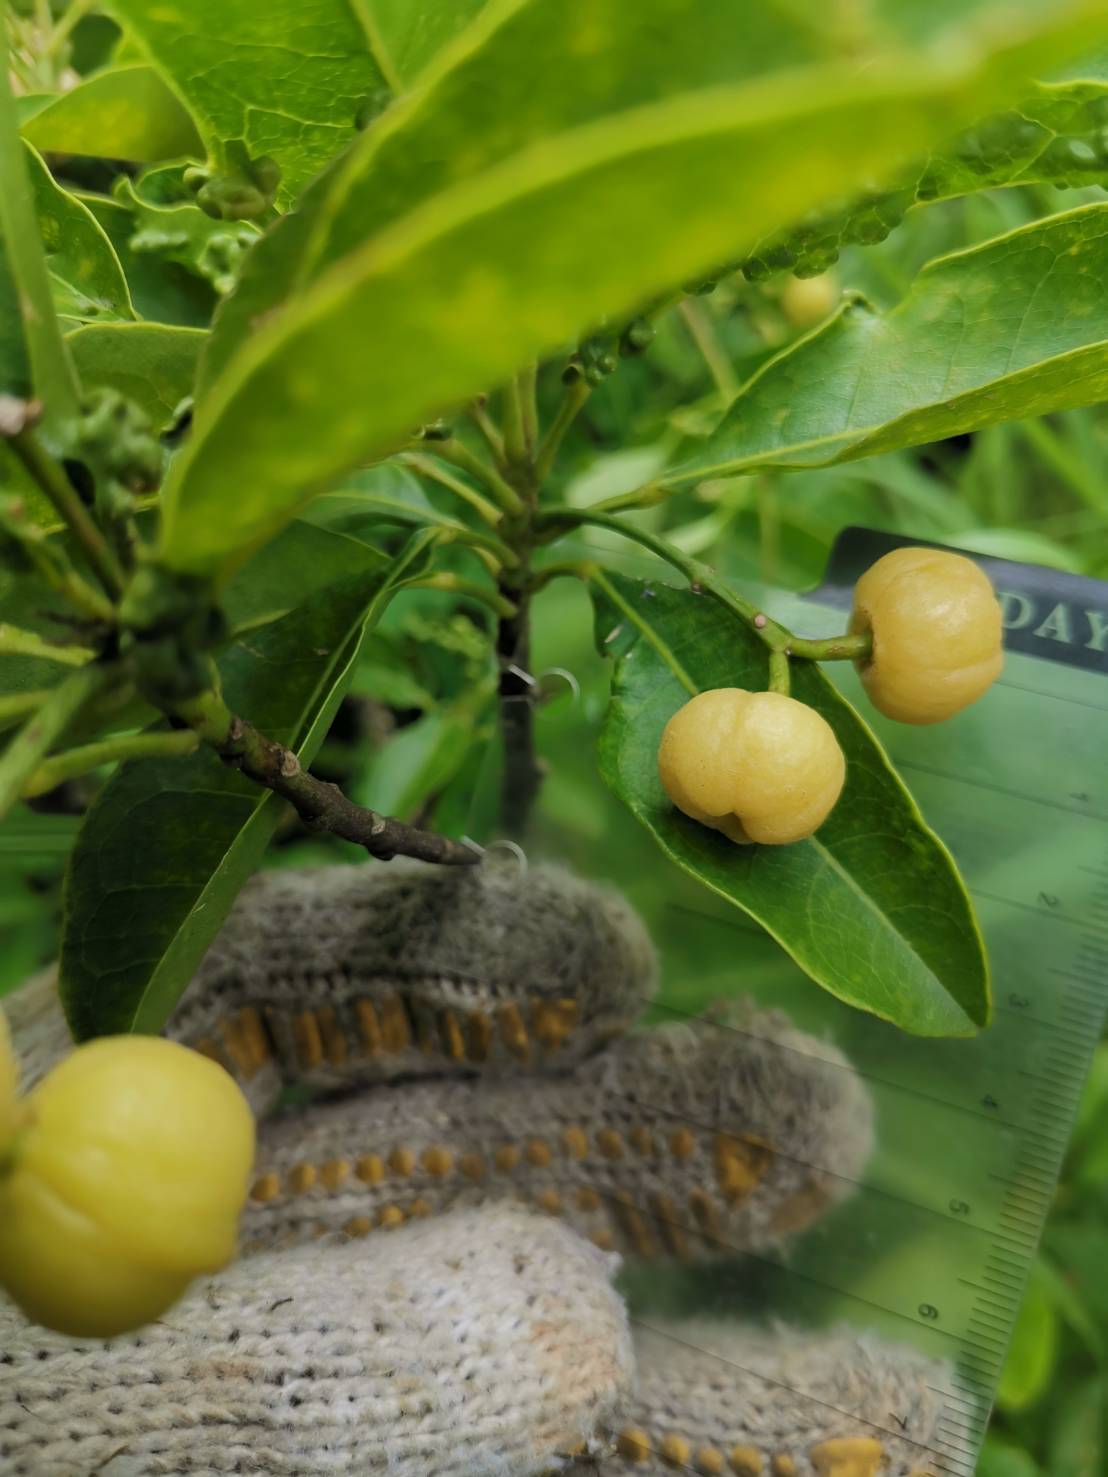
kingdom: Plantae
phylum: Tracheophyta
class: Magnoliopsida
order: Sapindales
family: Rutaceae
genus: Acronychia
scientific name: Acronychia pedunculata
